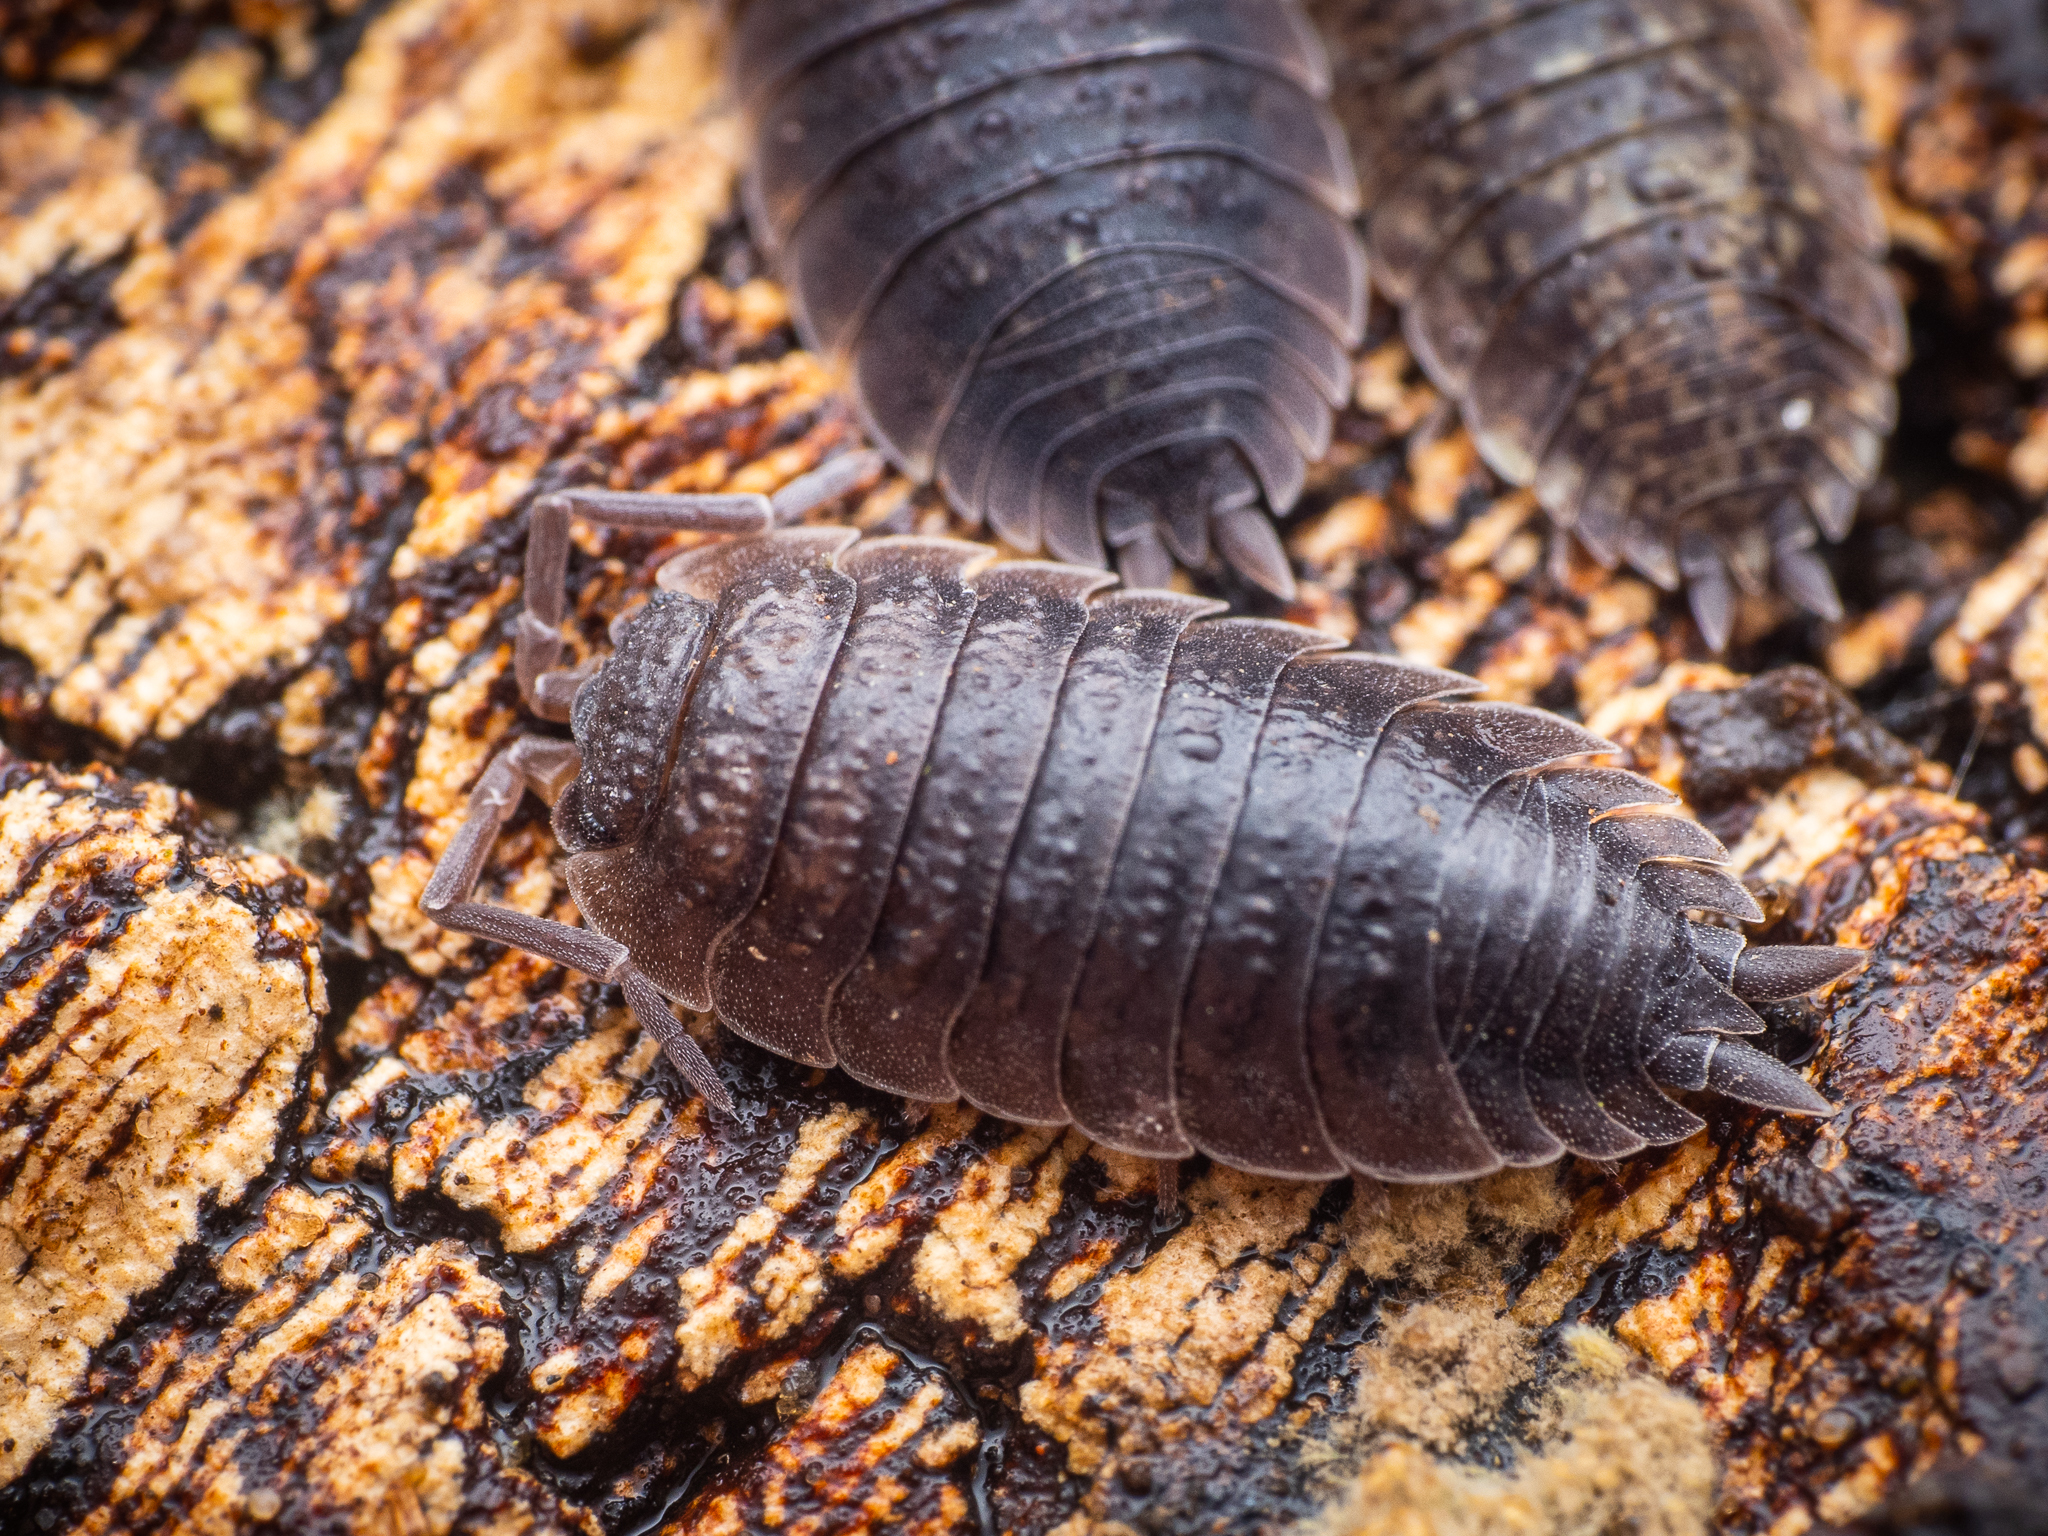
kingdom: Animalia
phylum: Arthropoda
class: Malacostraca
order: Isopoda
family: Porcellionidae
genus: Porcellio
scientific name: Porcellio scaber
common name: Common rough woodlouse
